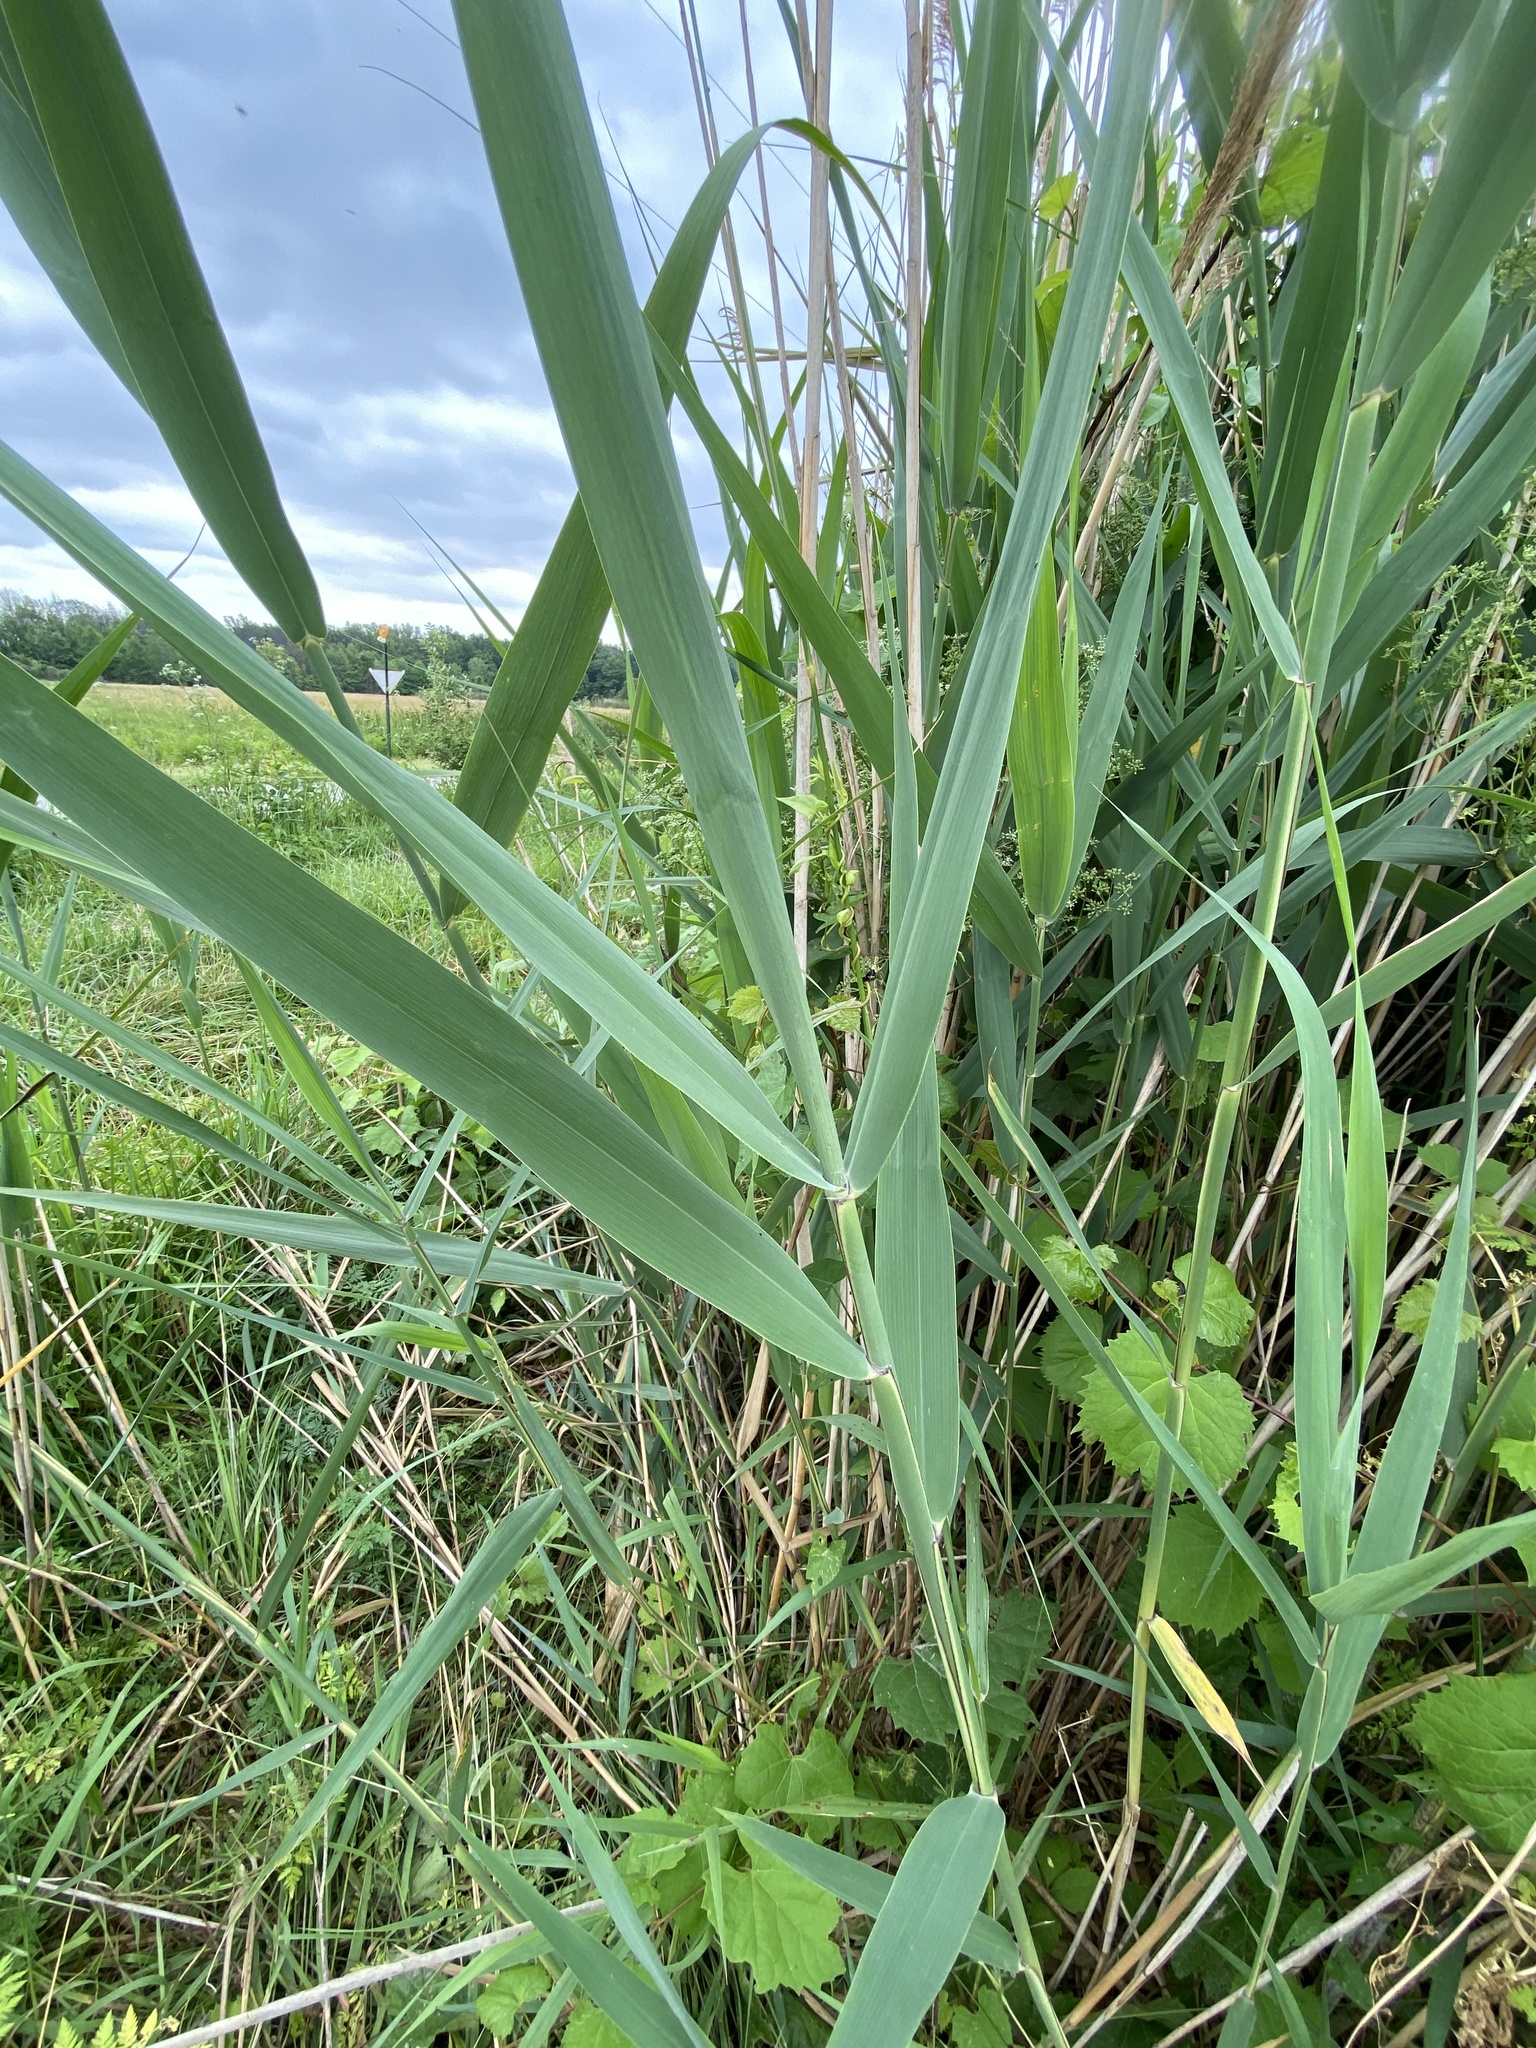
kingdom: Plantae
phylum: Tracheophyta
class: Liliopsida
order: Poales
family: Poaceae
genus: Phragmites
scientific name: Phragmites australis
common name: Common reed
